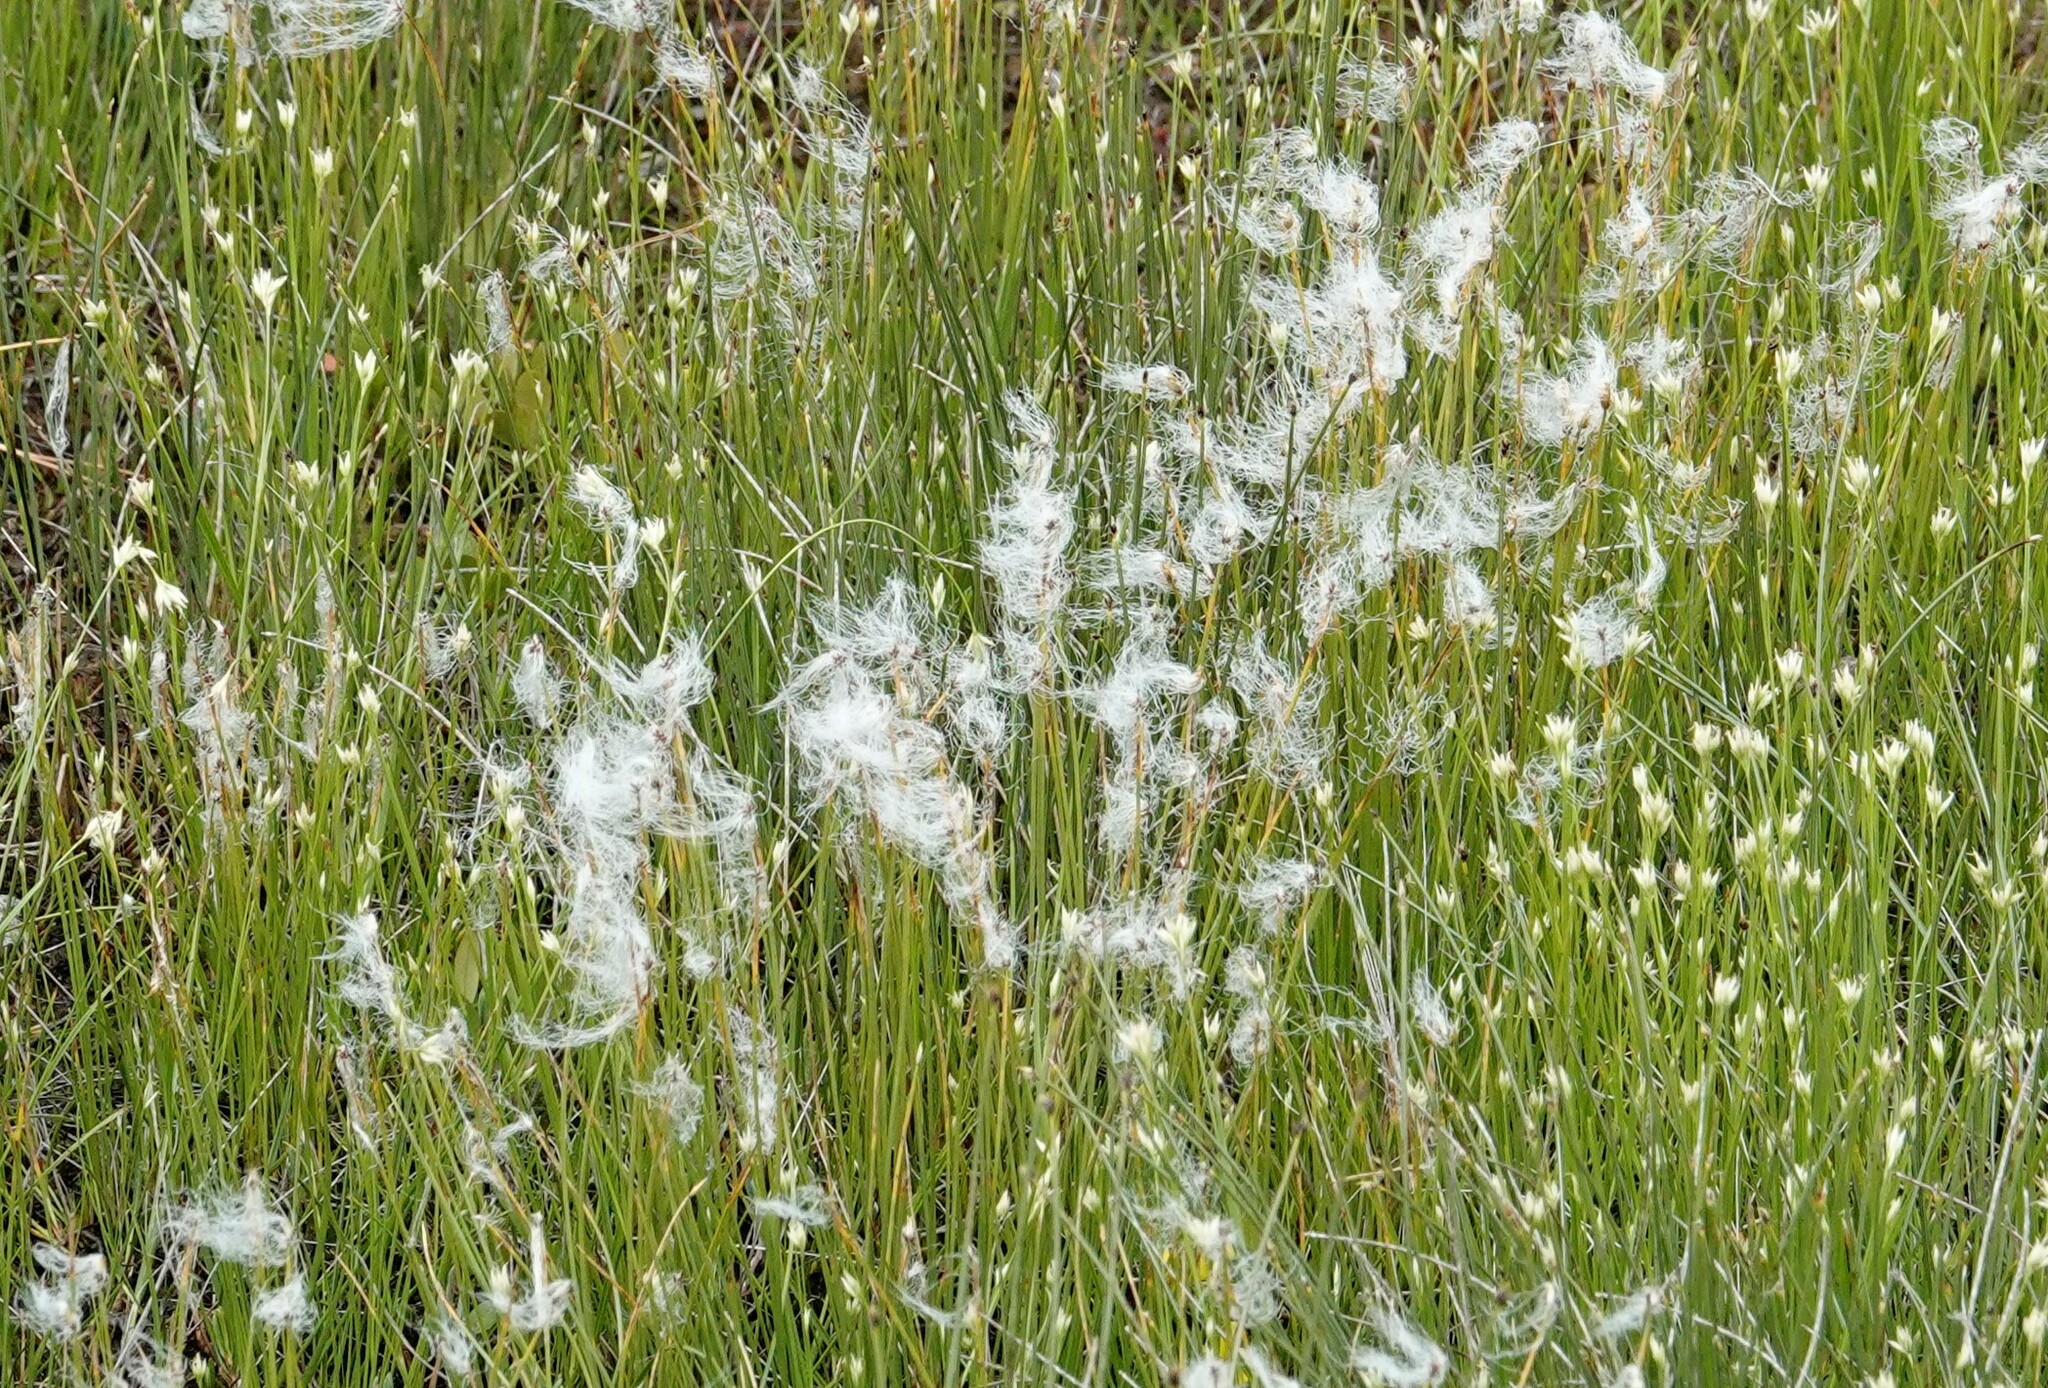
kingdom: Plantae
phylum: Tracheophyta
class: Liliopsida
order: Poales
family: Cyperaceae
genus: Trichophorum
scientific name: Trichophorum alpinum
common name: Alpine bulrush
